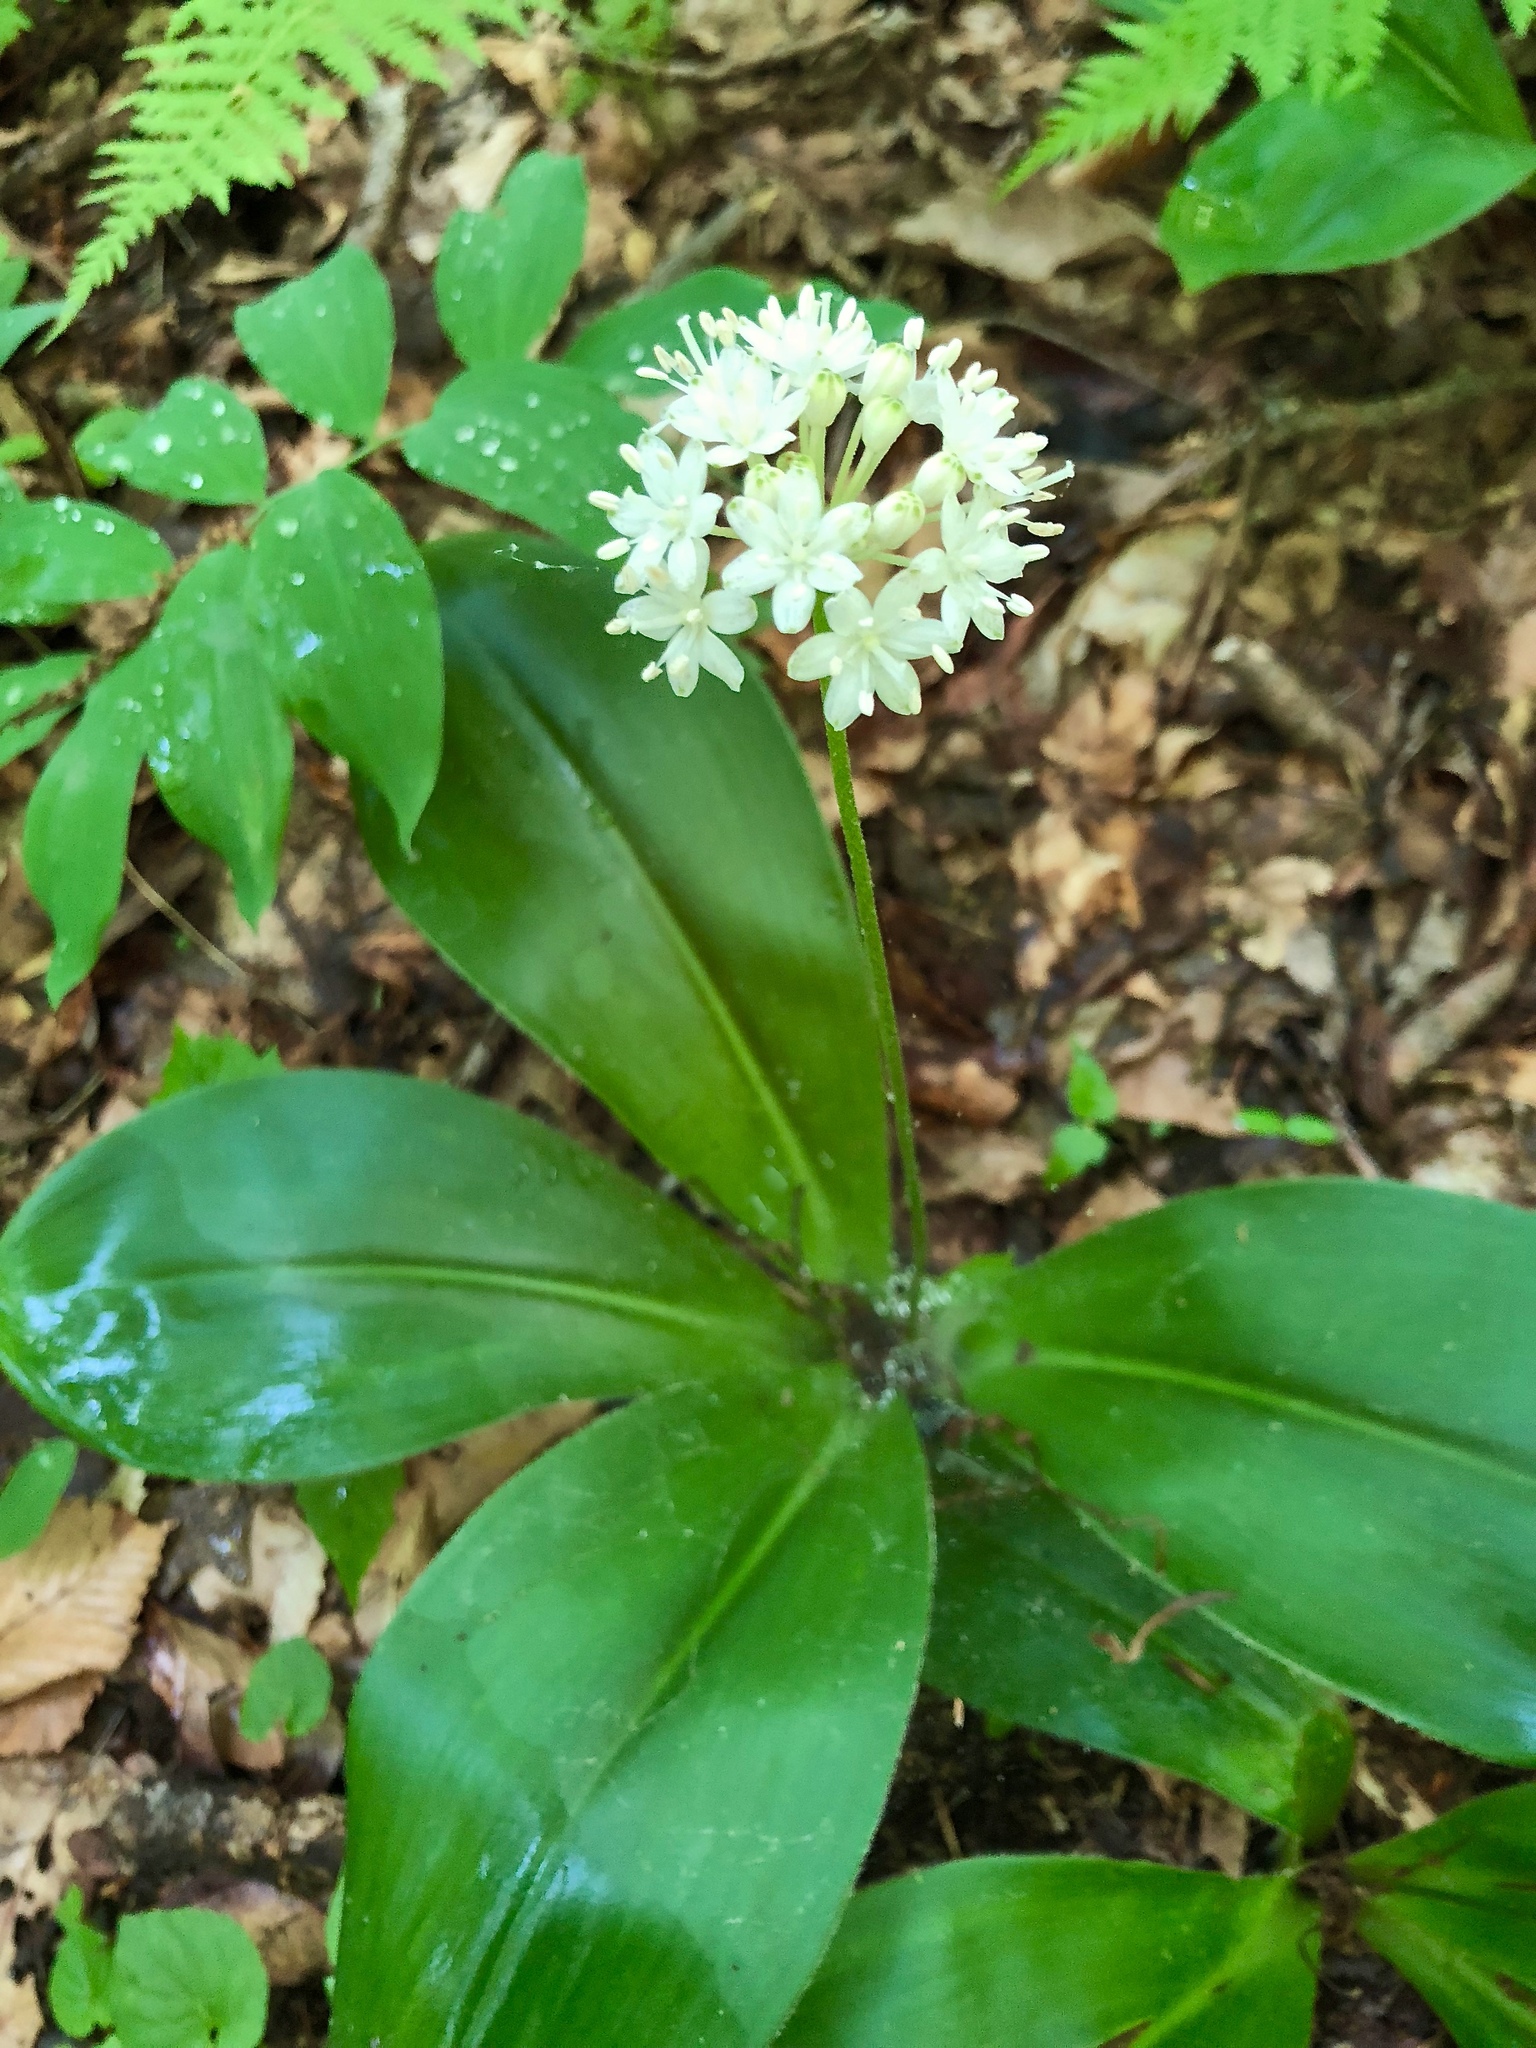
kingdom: Plantae
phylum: Tracheophyta
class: Liliopsida
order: Liliales
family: Liliaceae
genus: Clintonia
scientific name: Clintonia umbellulata
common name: Speckle wood-lily
